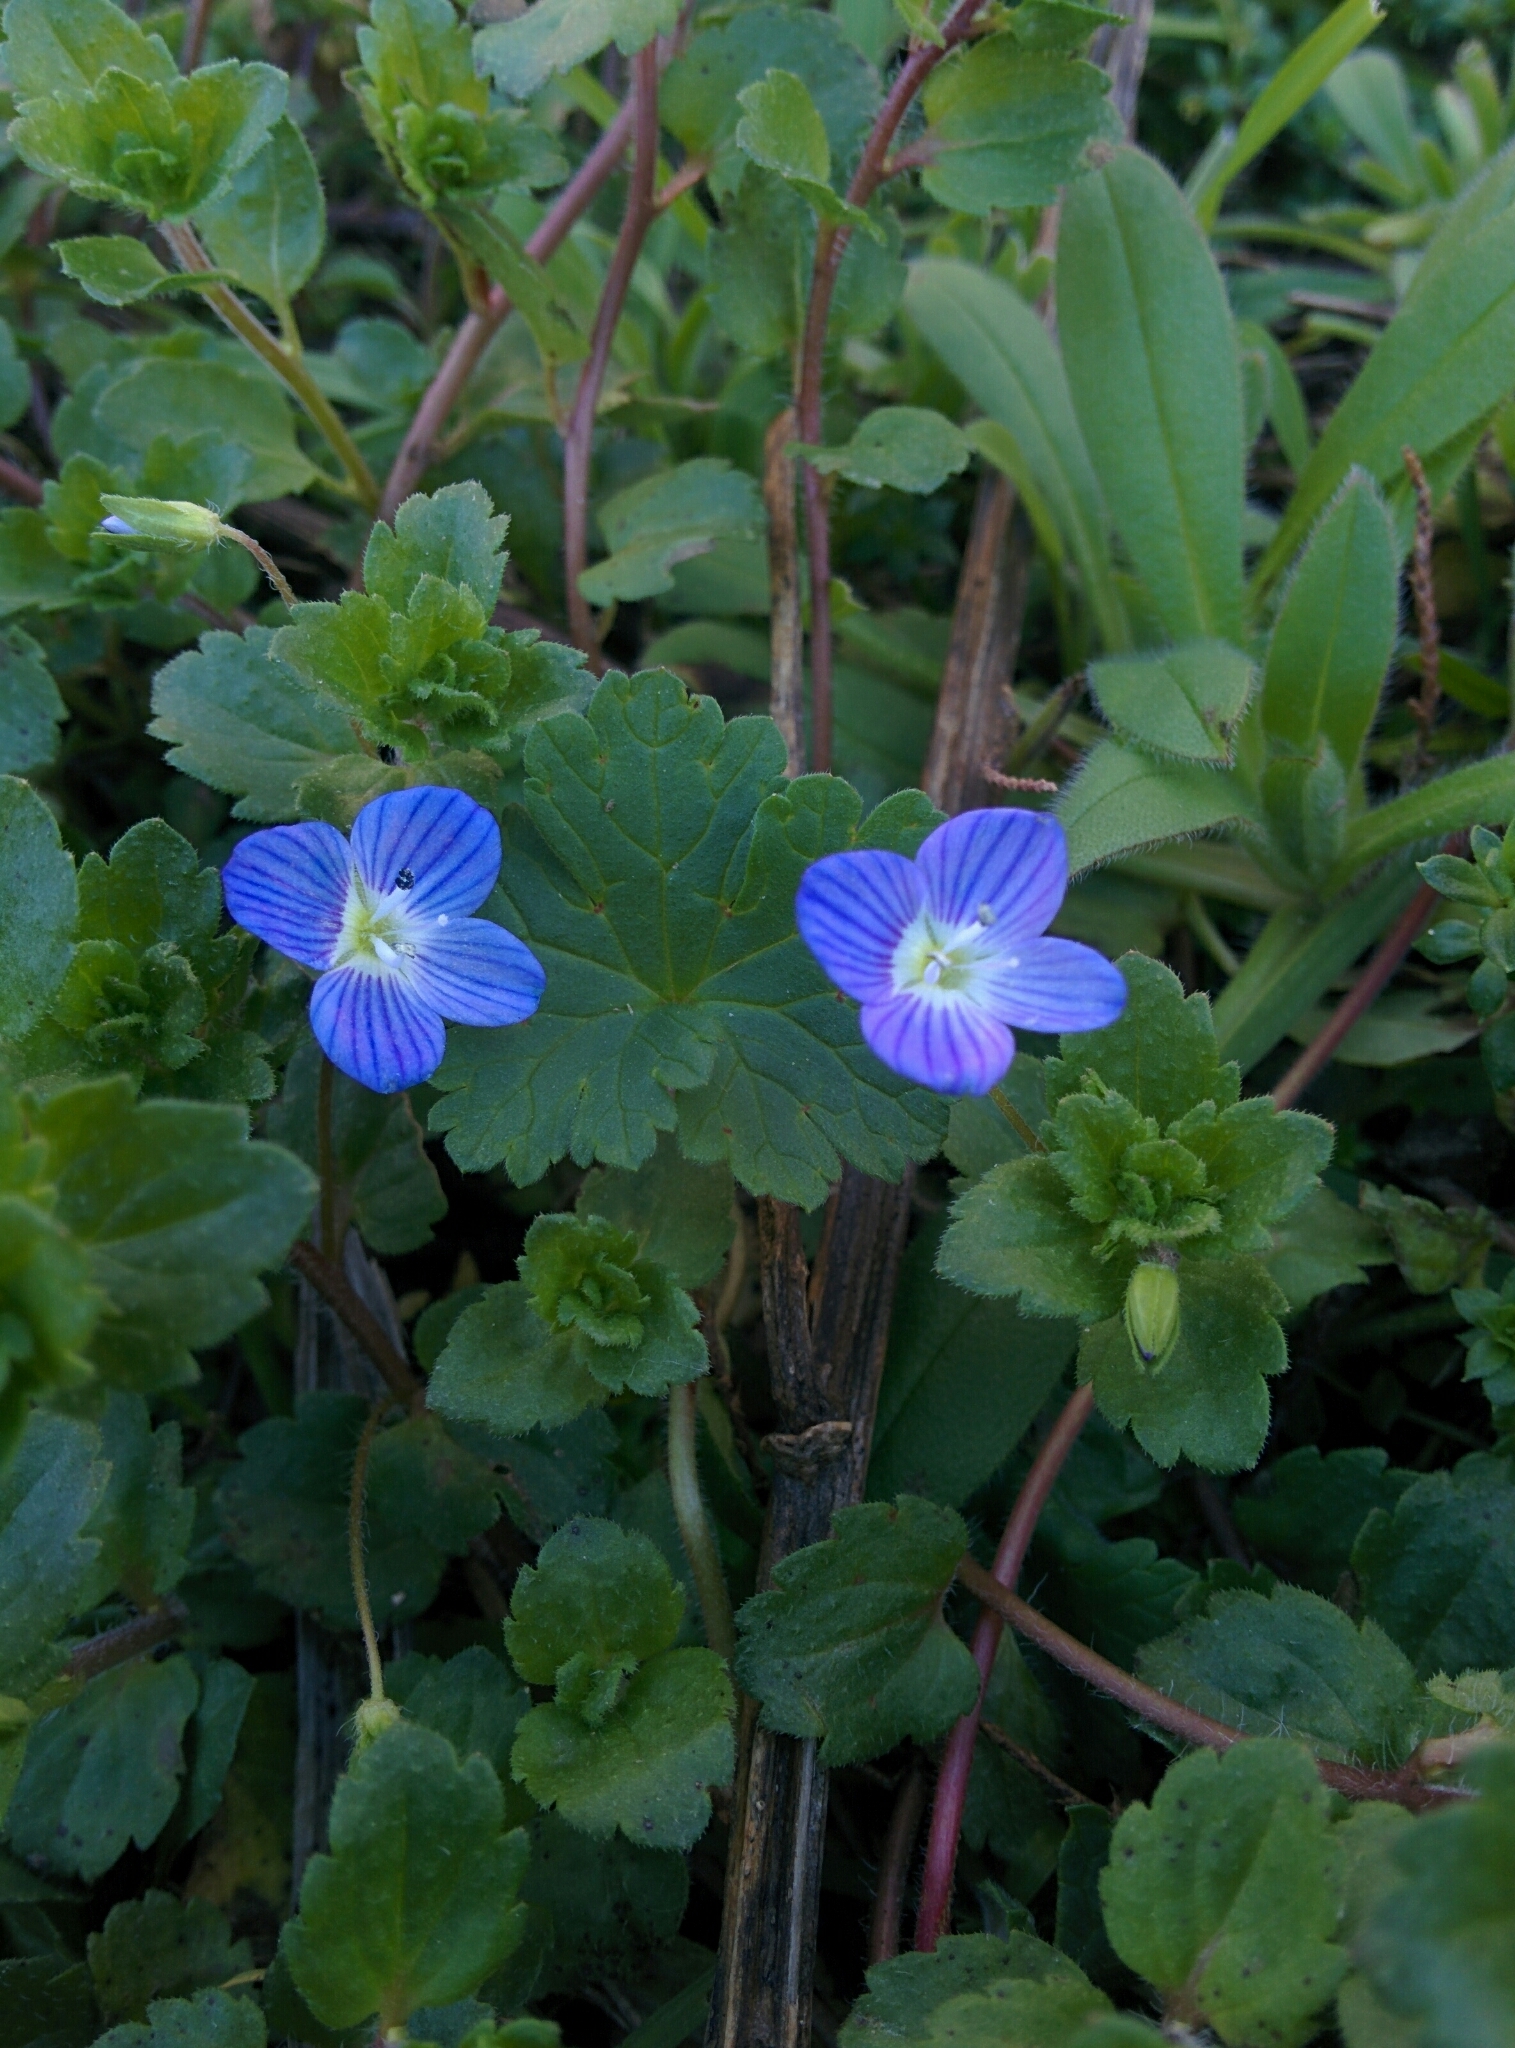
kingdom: Plantae
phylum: Tracheophyta
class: Magnoliopsida
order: Lamiales
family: Plantaginaceae
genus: Veronica
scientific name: Veronica persica
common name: Common field-speedwell
